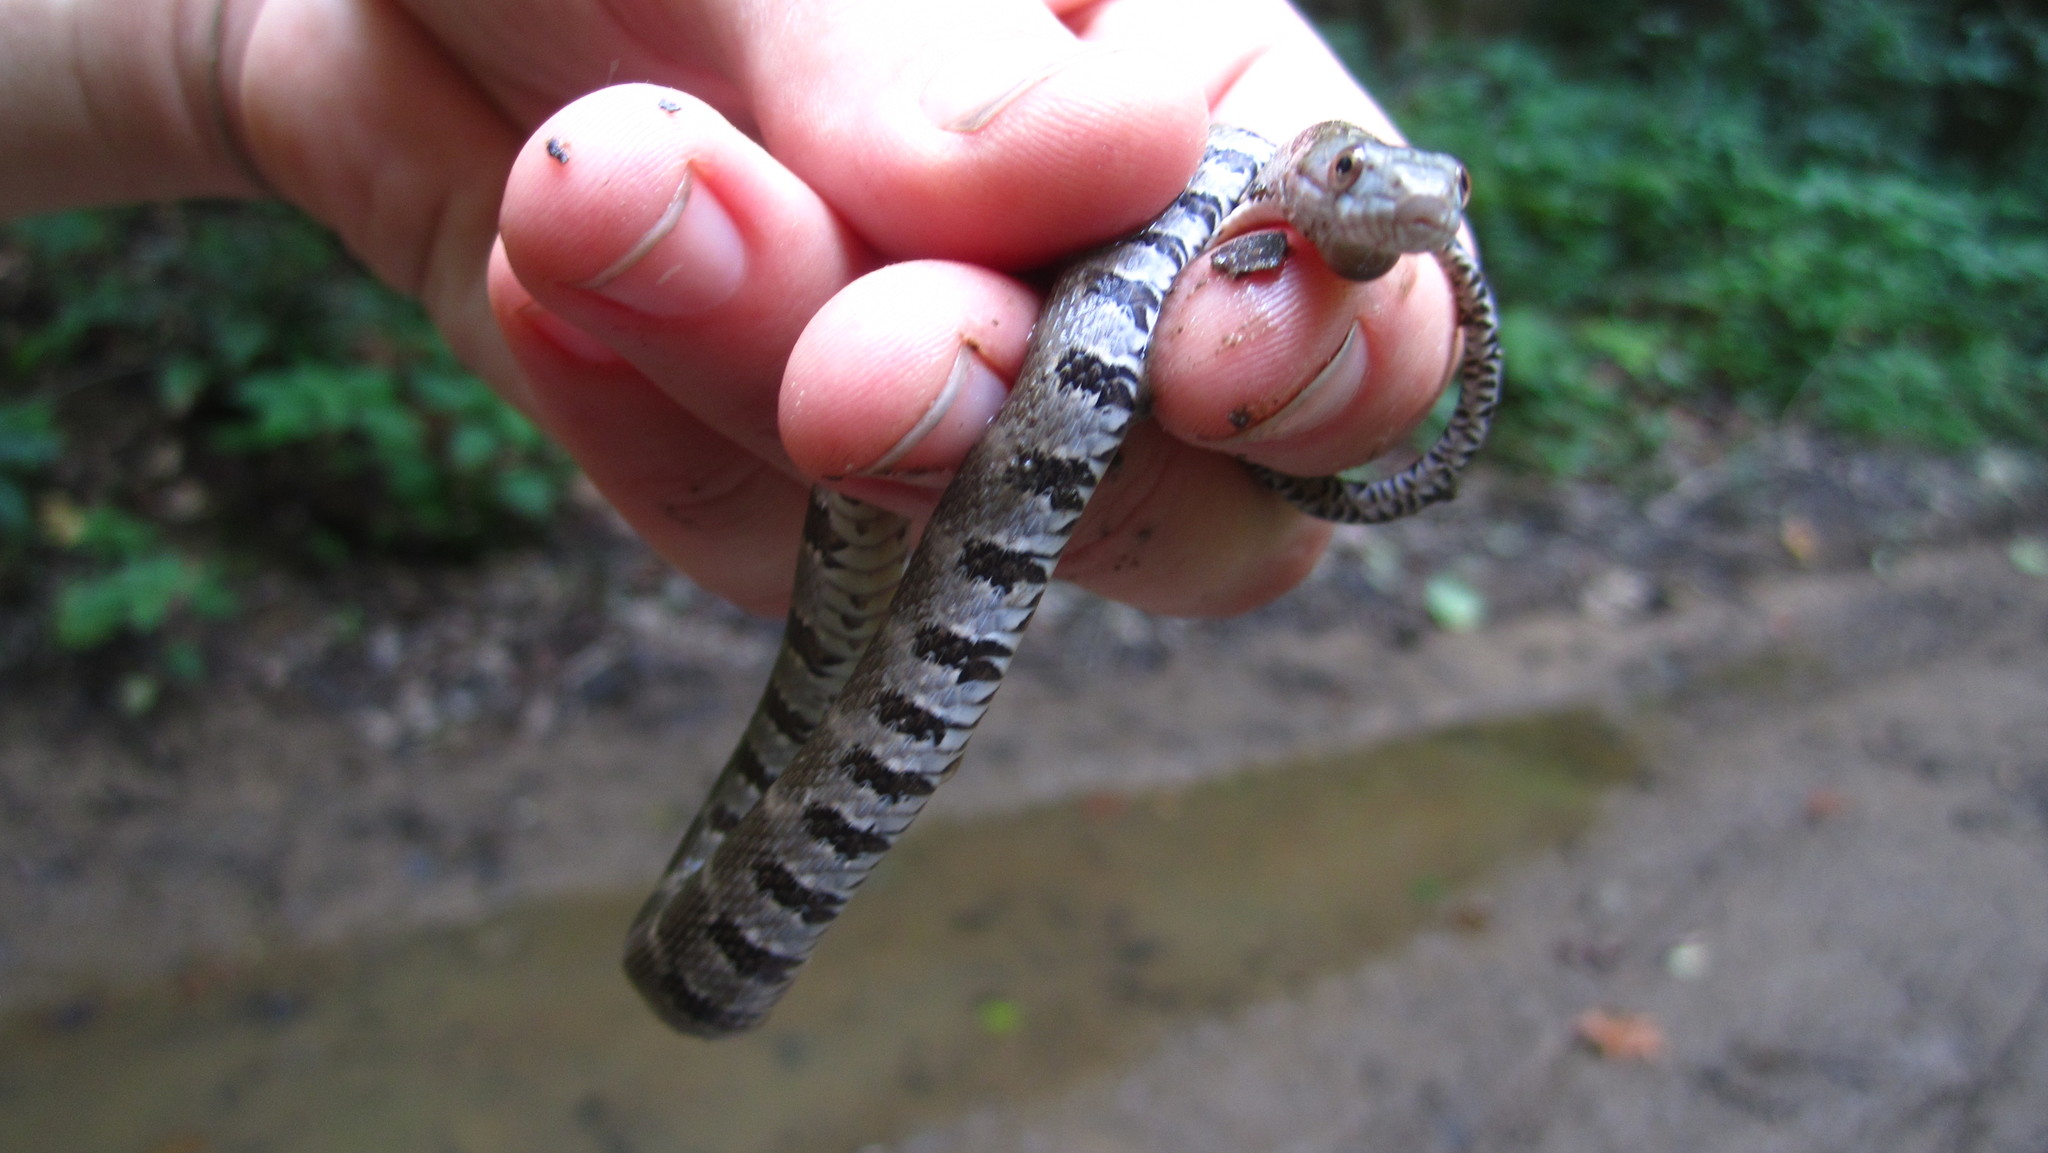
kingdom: Animalia
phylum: Chordata
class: Squamata
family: Colubridae
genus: Nerodia
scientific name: Nerodia sipedon
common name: Northern water snake
